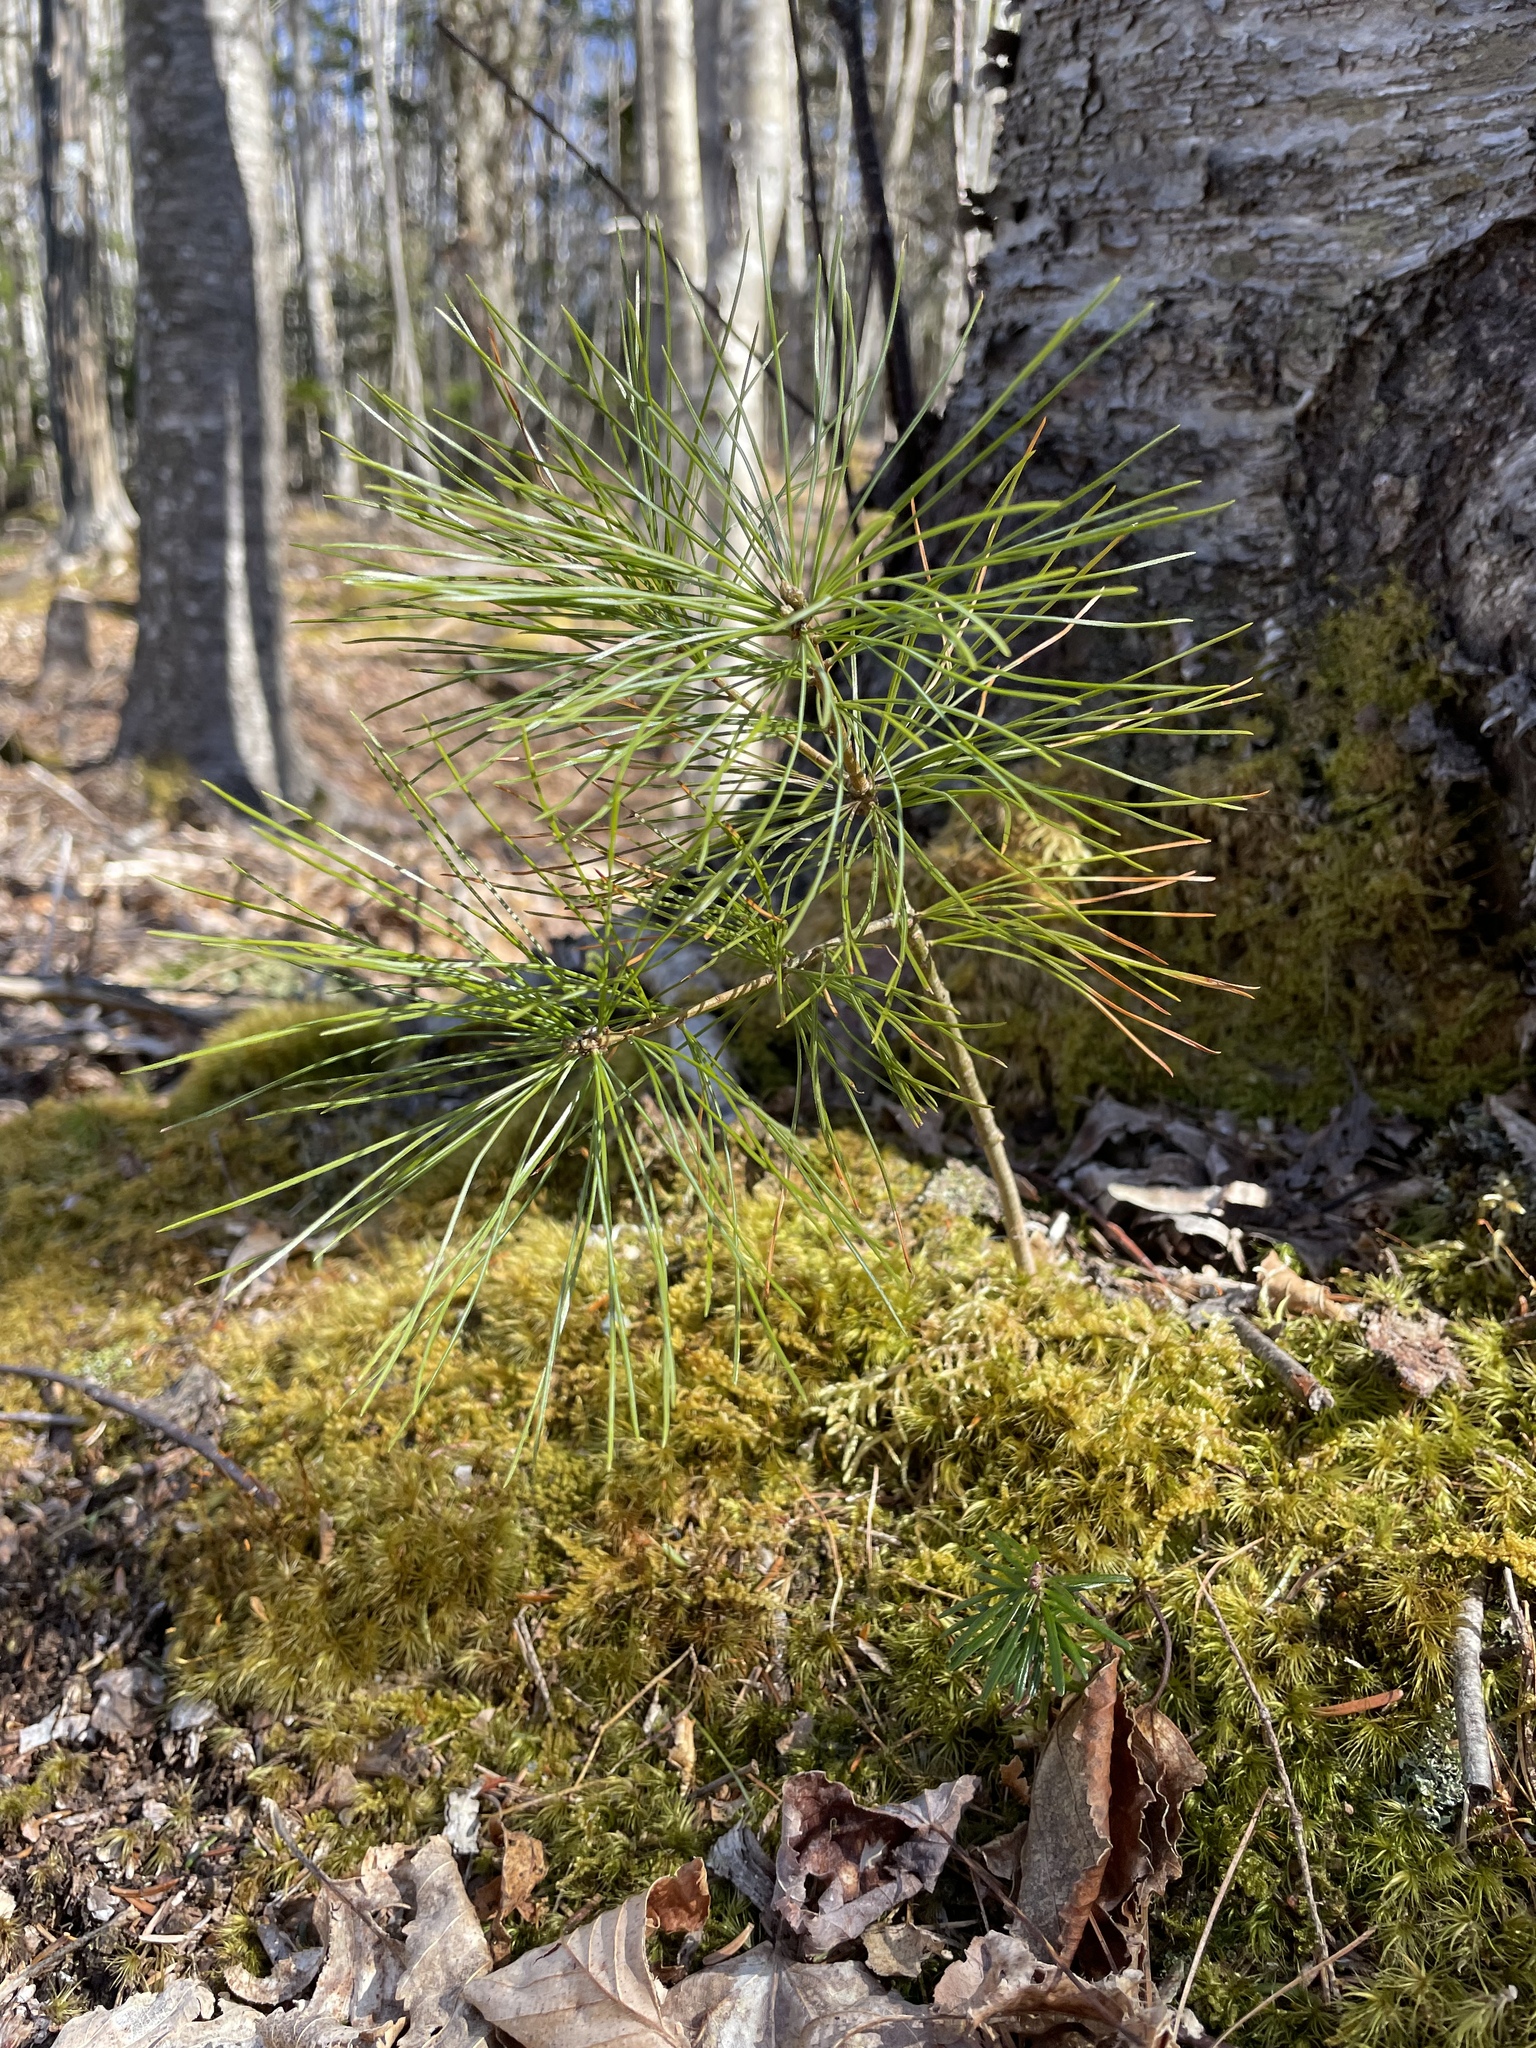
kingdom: Plantae
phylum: Tracheophyta
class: Pinopsida
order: Pinales
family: Pinaceae
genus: Pinus
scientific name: Pinus strobus
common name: Weymouth pine
